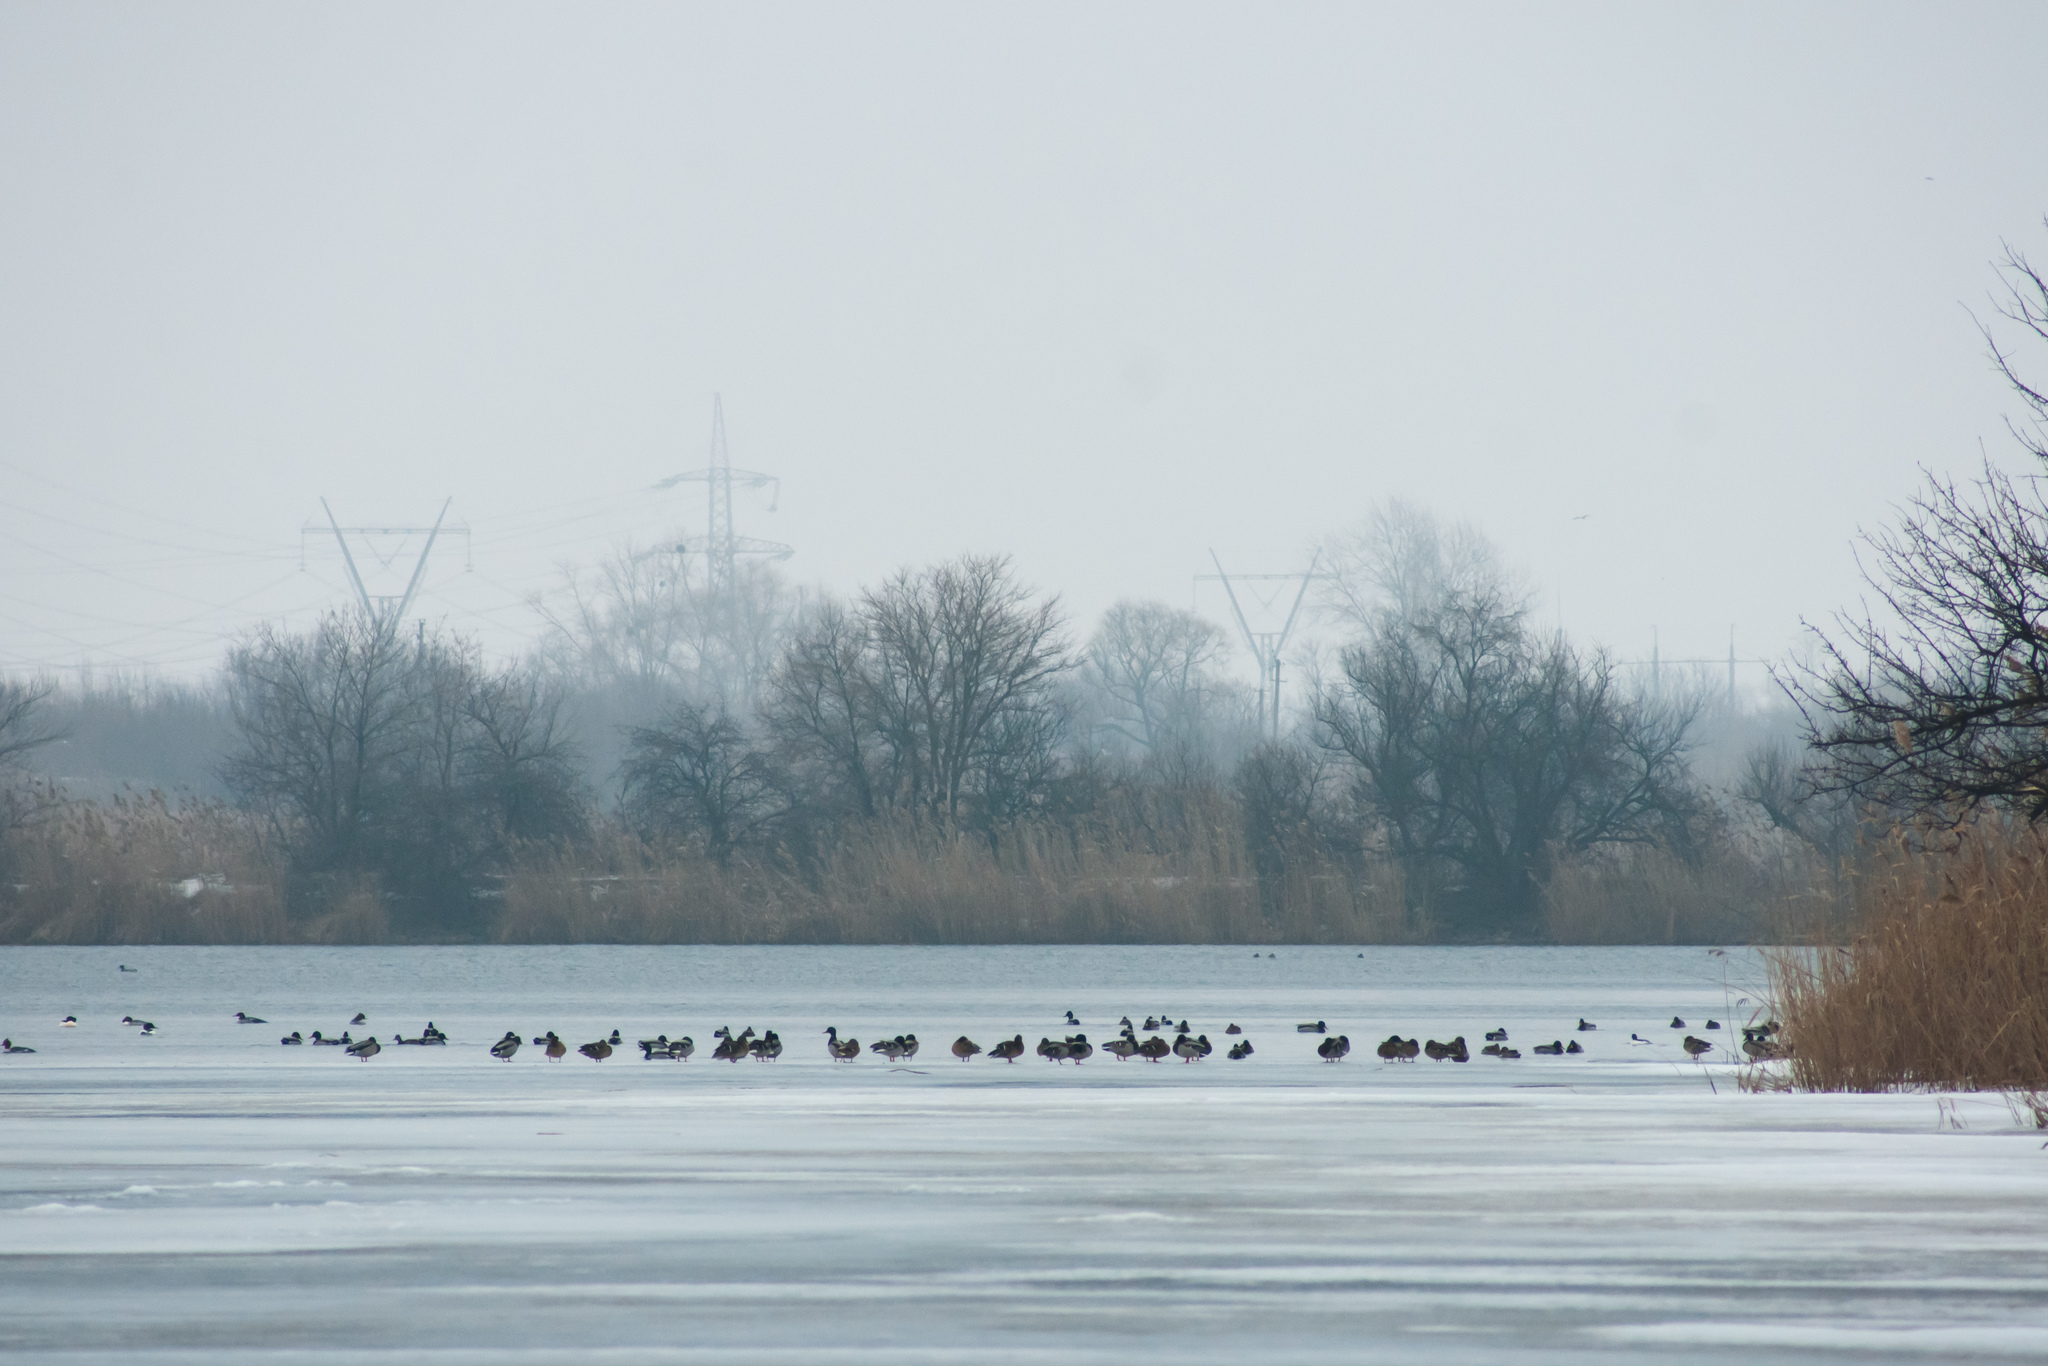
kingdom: Animalia
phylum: Chordata
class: Aves
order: Anseriformes
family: Anatidae
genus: Anas
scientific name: Anas platyrhynchos
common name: Mallard
